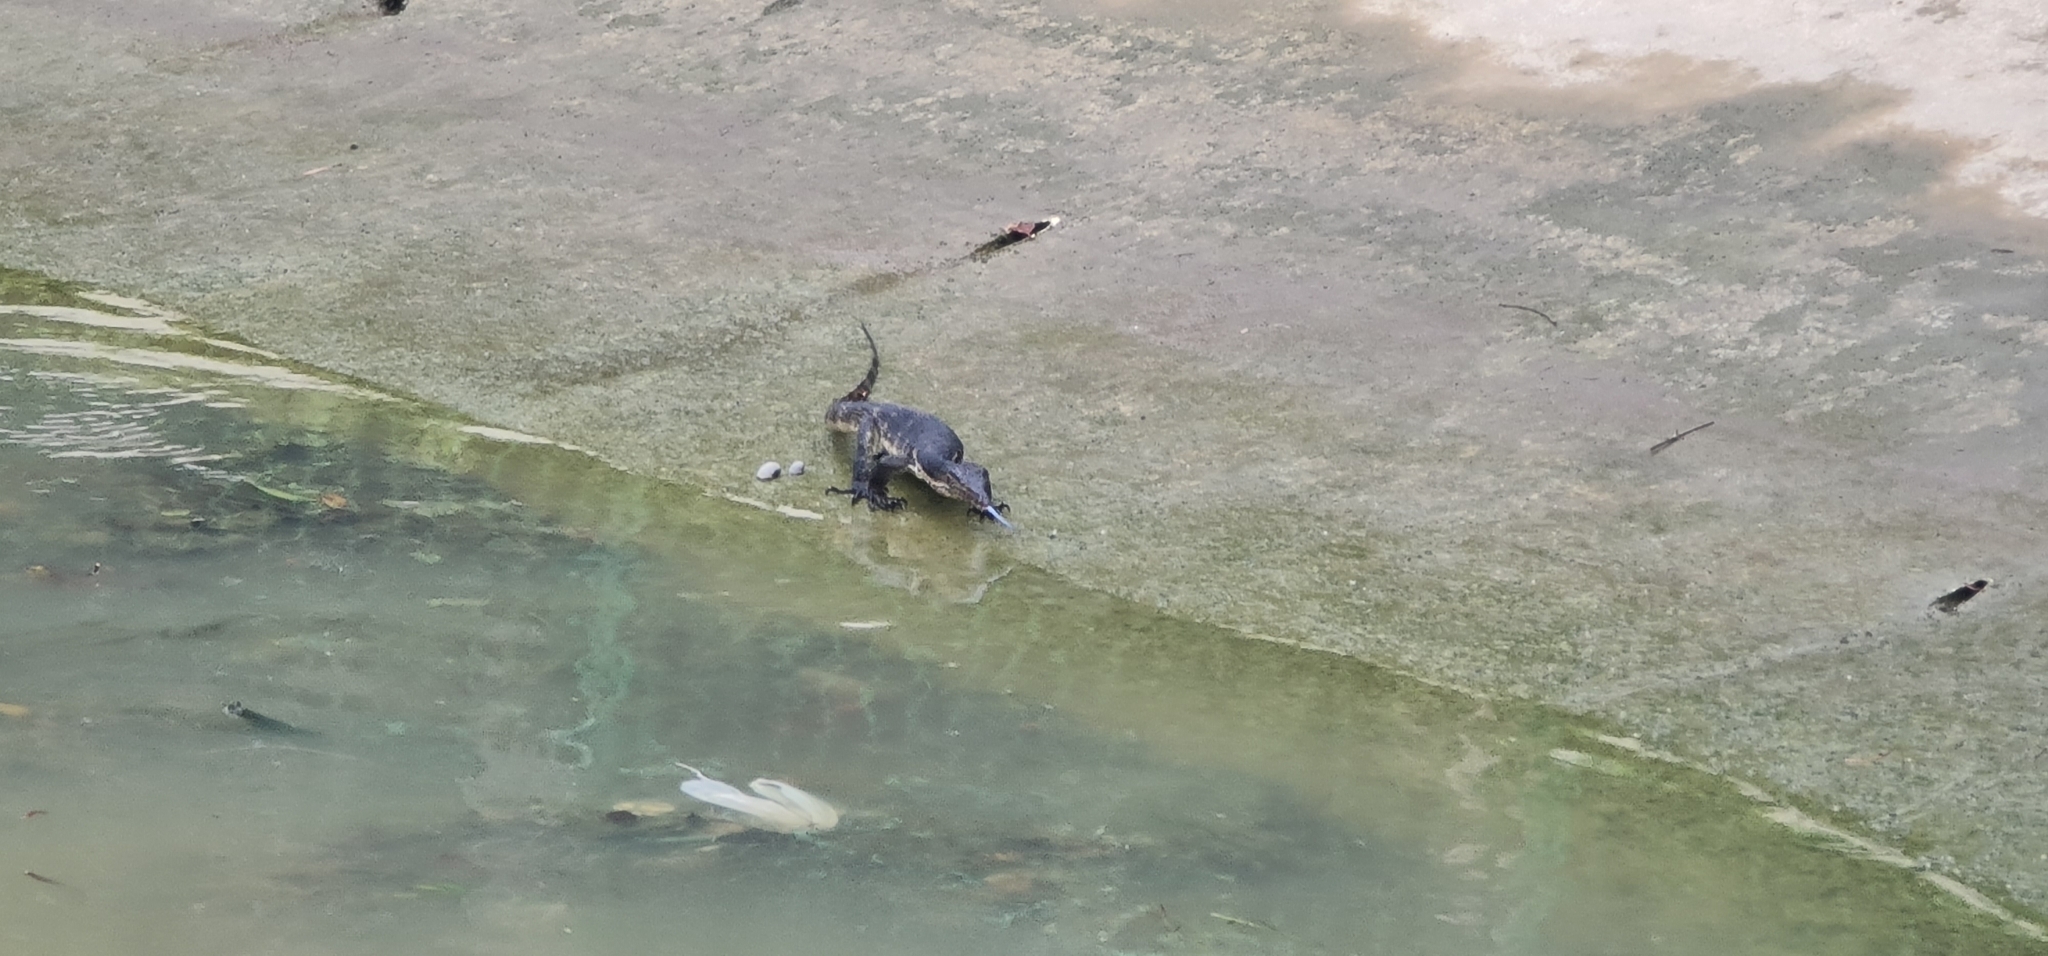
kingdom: Animalia
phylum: Chordata
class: Squamata
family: Varanidae
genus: Varanus
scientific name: Varanus salvator
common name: Common water monitor
